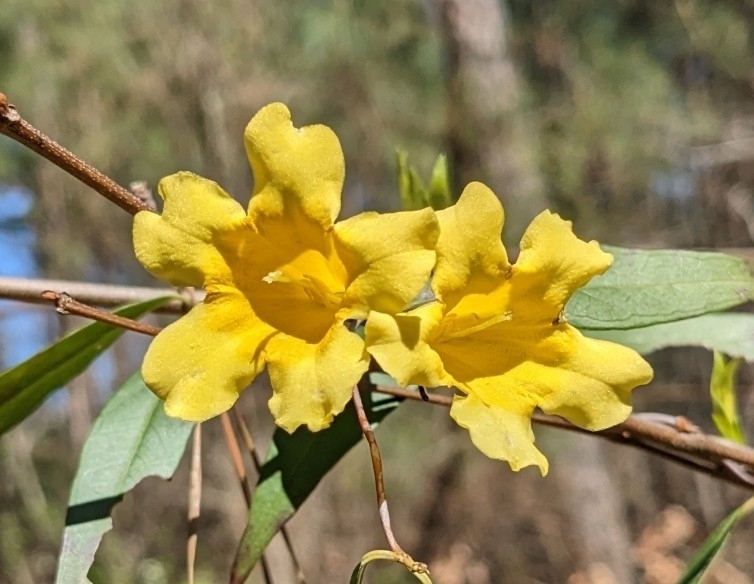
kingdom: Plantae
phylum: Tracheophyta
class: Magnoliopsida
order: Gentianales
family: Gelsemiaceae
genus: Gelsemium
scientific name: Gelsemium sempervirens
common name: Carolina-jasmine
